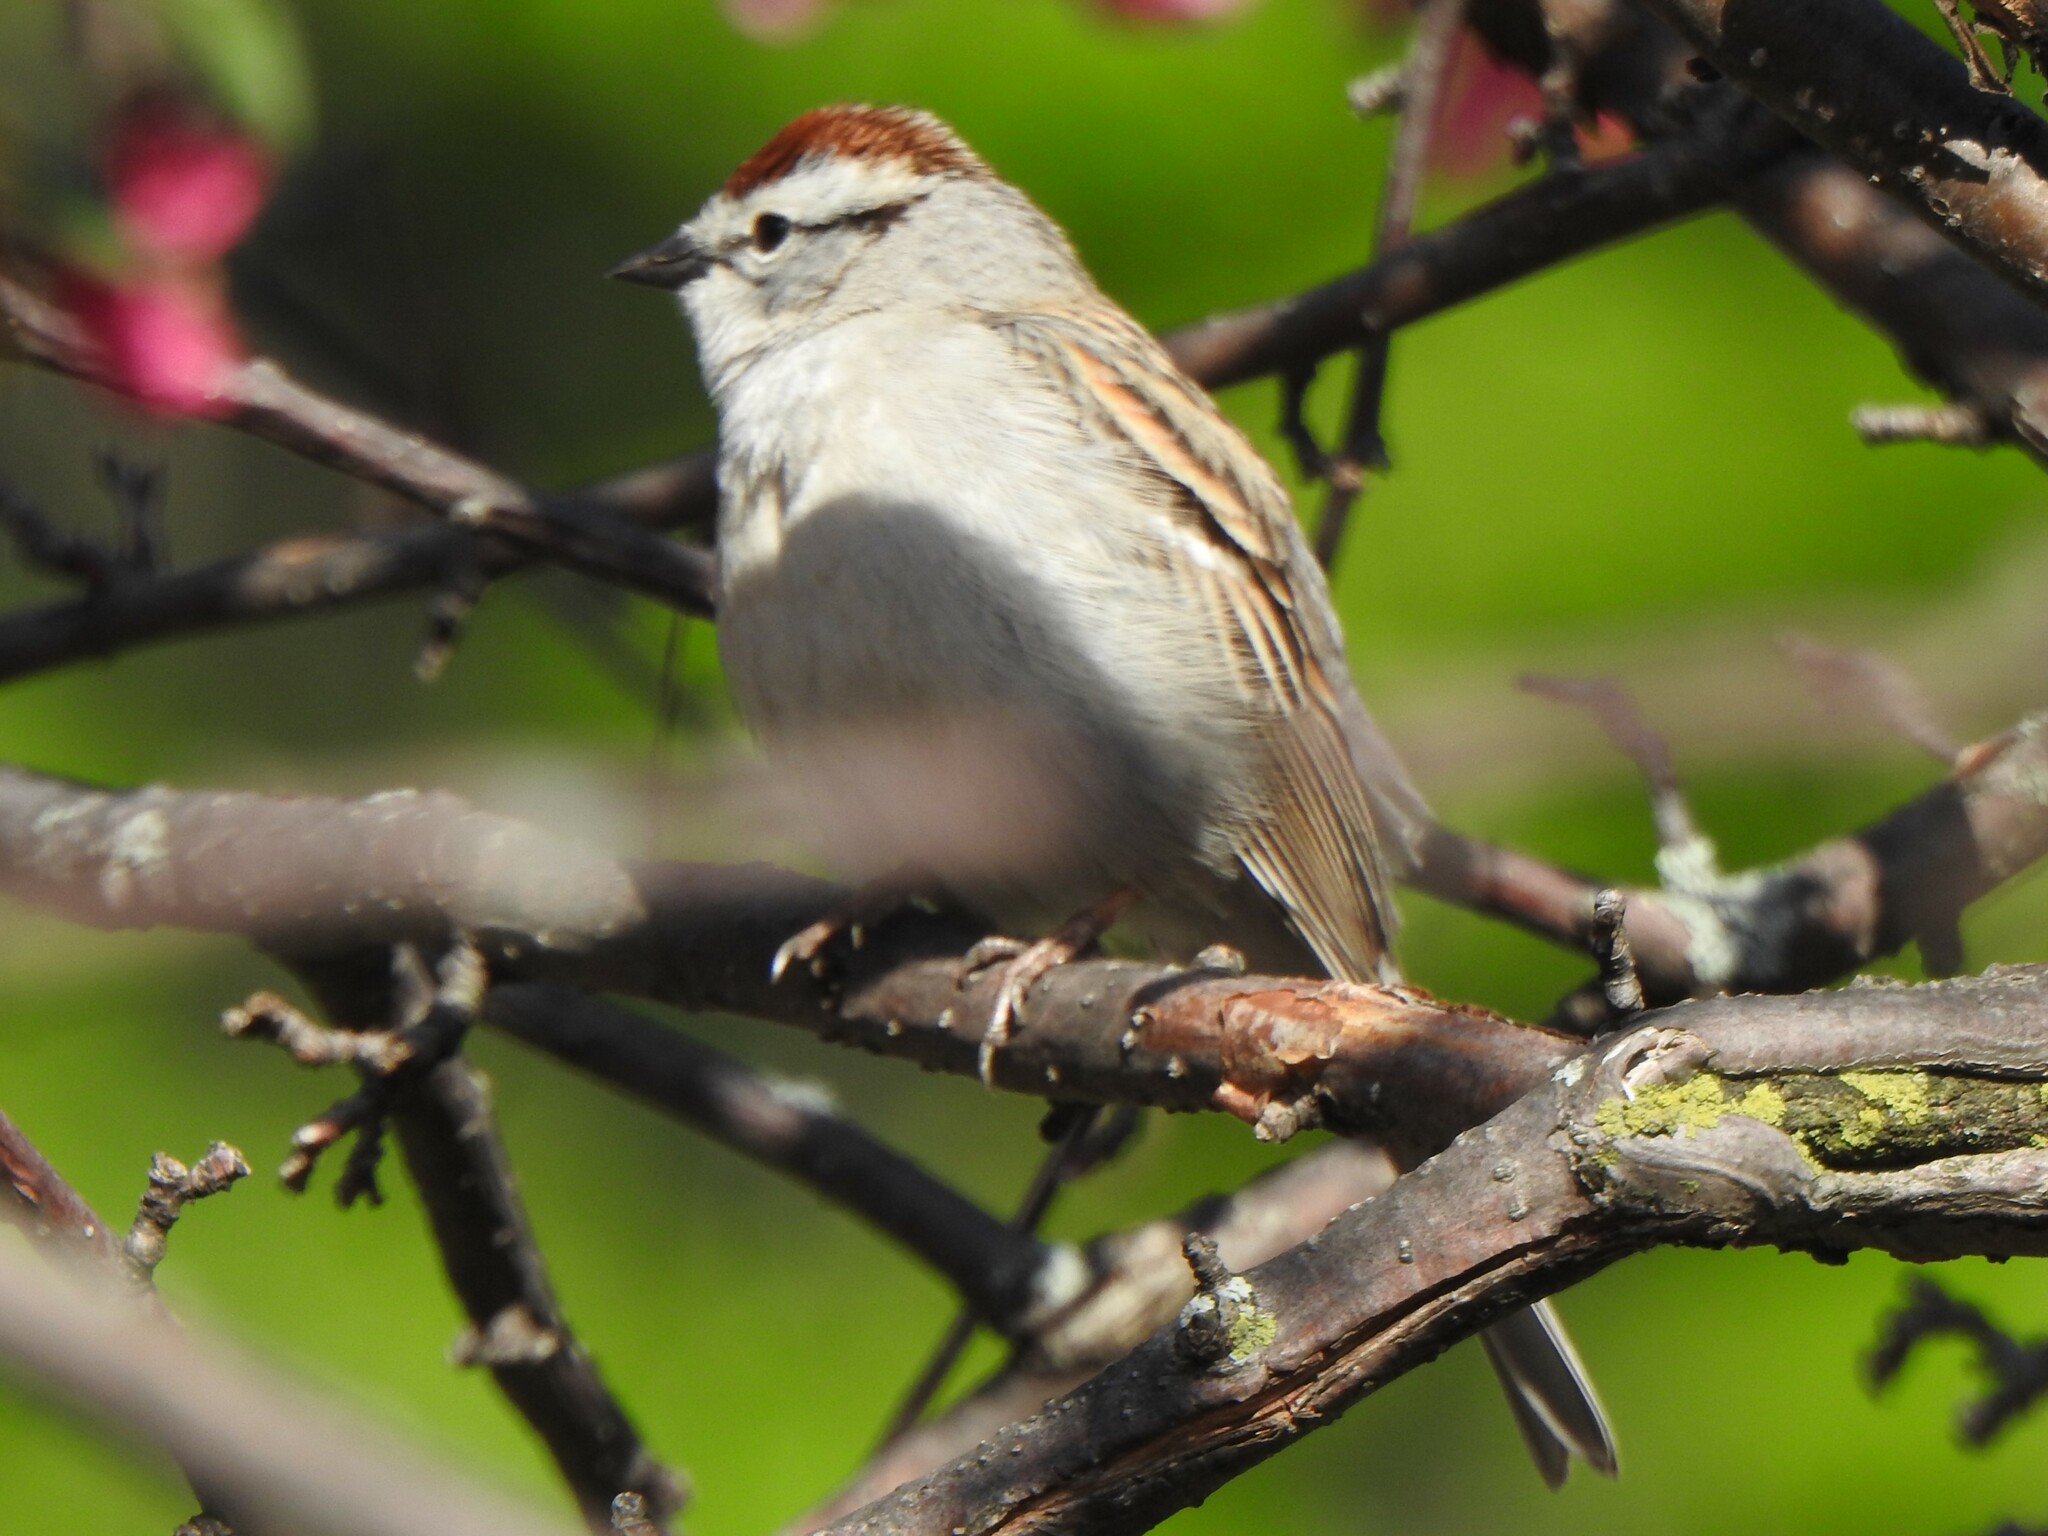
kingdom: Animalia
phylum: Chordata
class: Aves
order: Passeriformes
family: Passerellidae
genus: Spizella
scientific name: Spizella passerina
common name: Chipping sparrow
